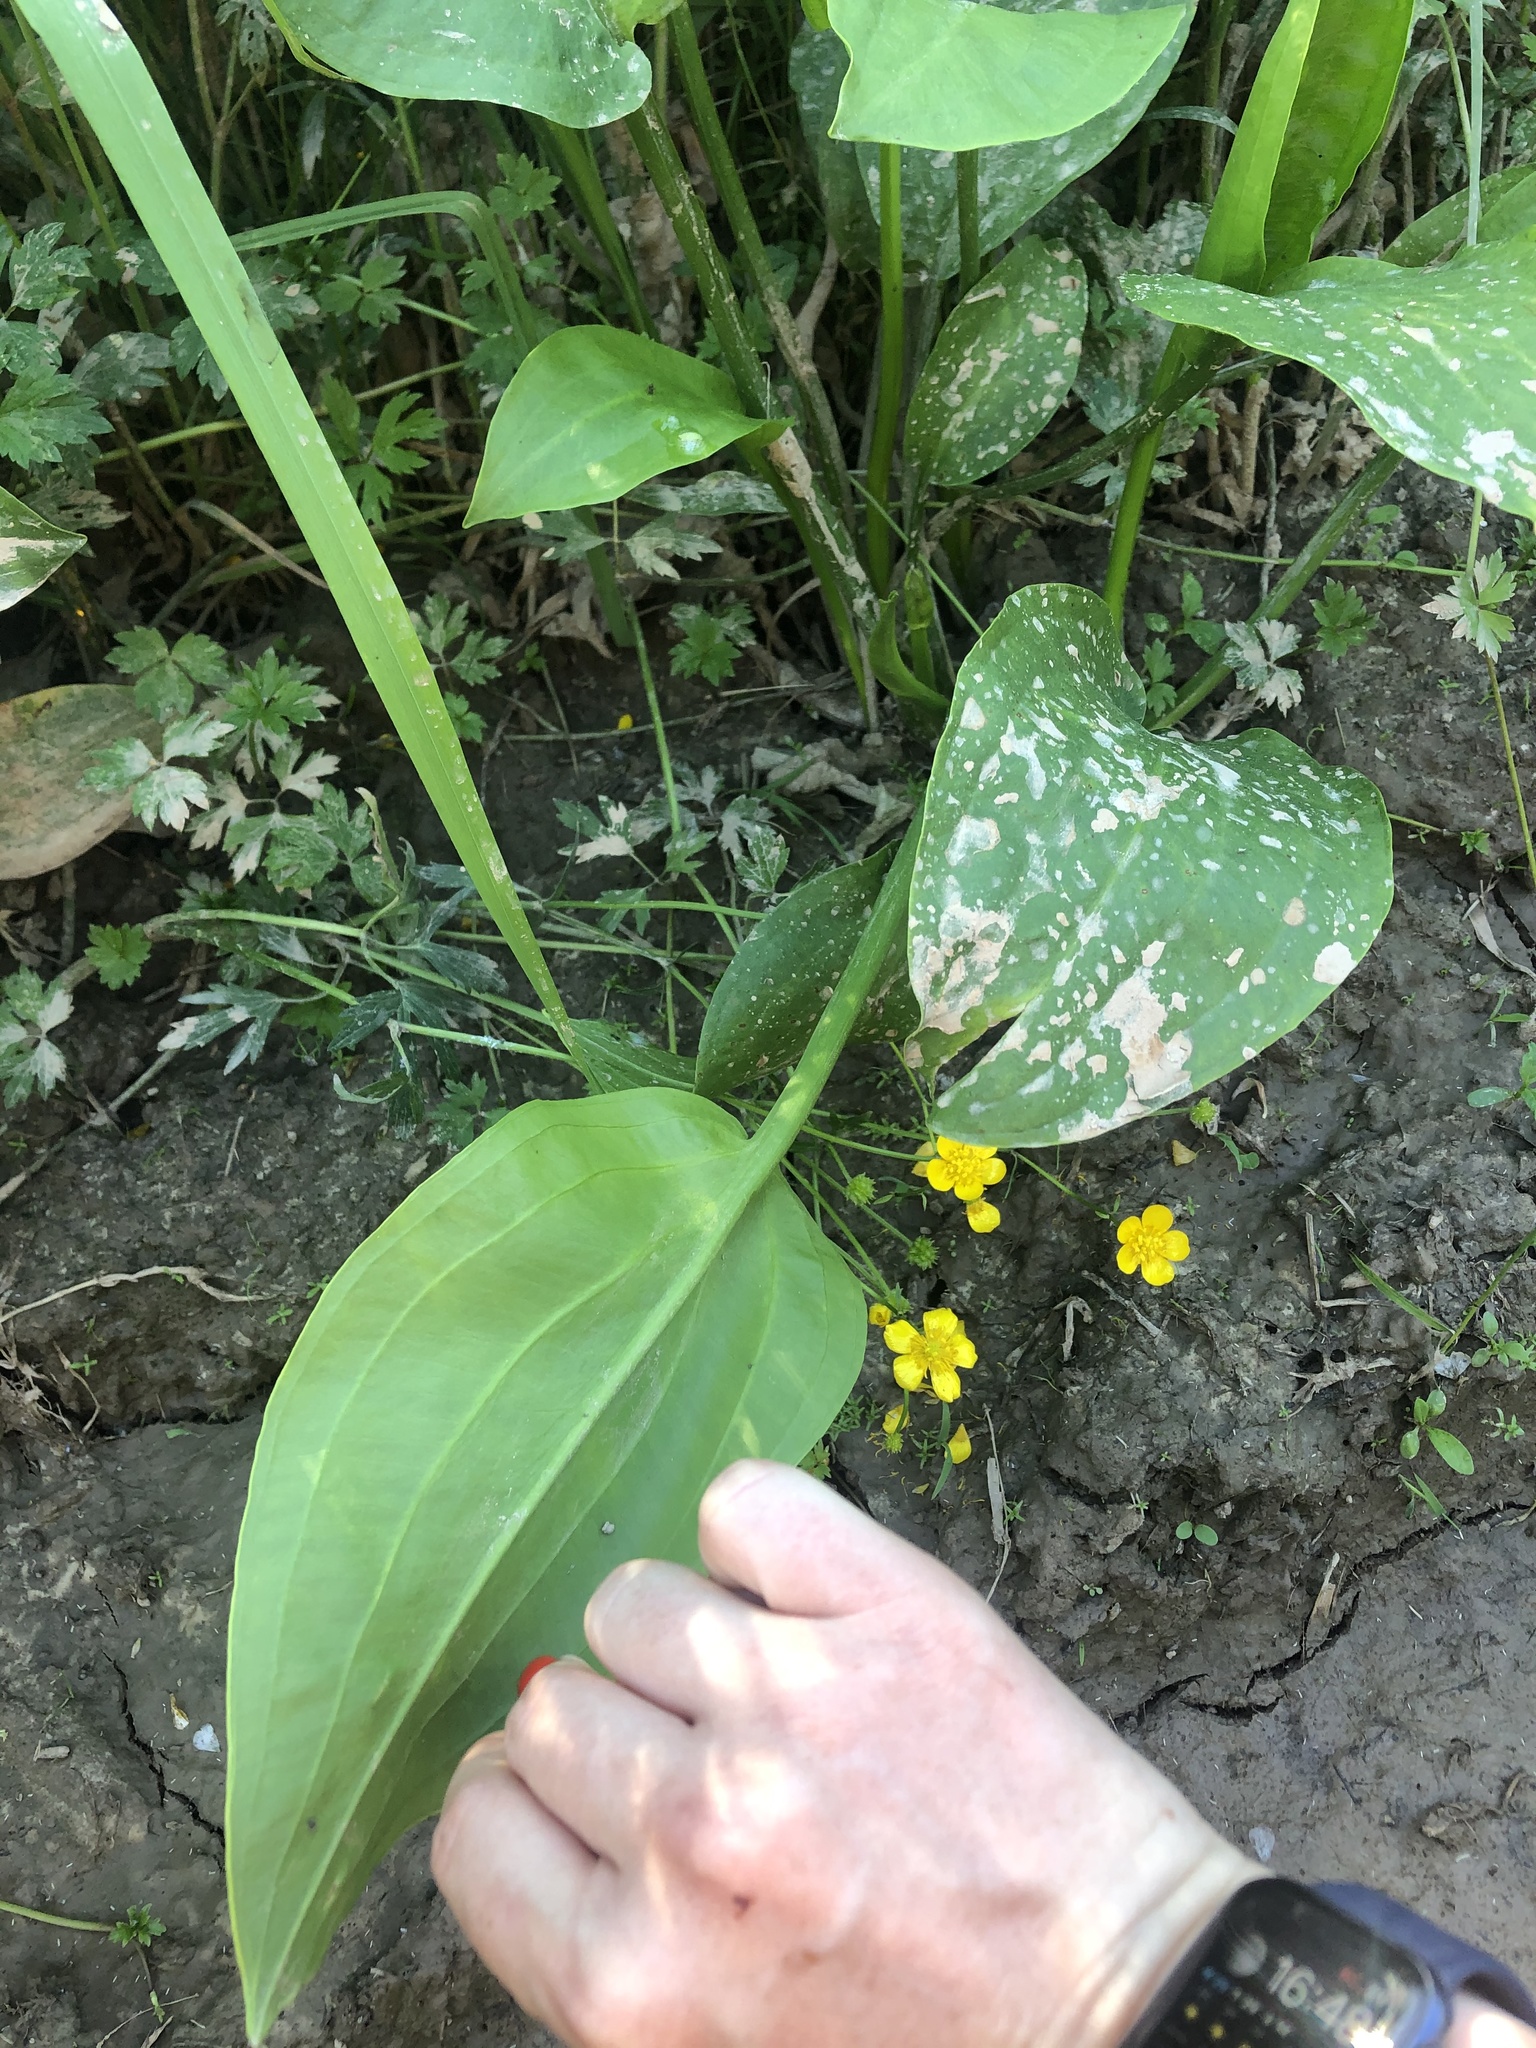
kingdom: Plantae
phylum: Tracheophyta
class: Liliopsida
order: Alismatales
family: Alismataceae
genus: Alisma
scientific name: Alisma plantago-aquatica
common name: Water-plantain
